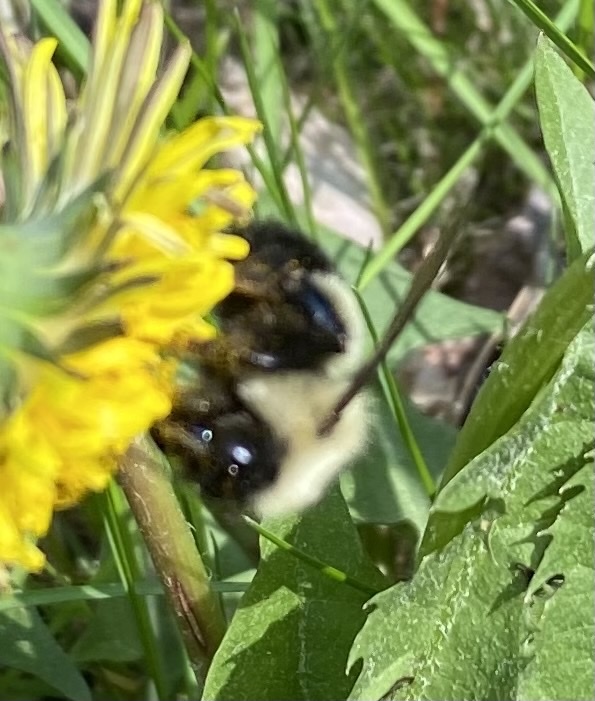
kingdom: Animalia
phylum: Arthropoda
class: Insecta
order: Hymenoptera
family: Apidae
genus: Bombus
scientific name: Bombus vagans
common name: Half-black bumble bee
